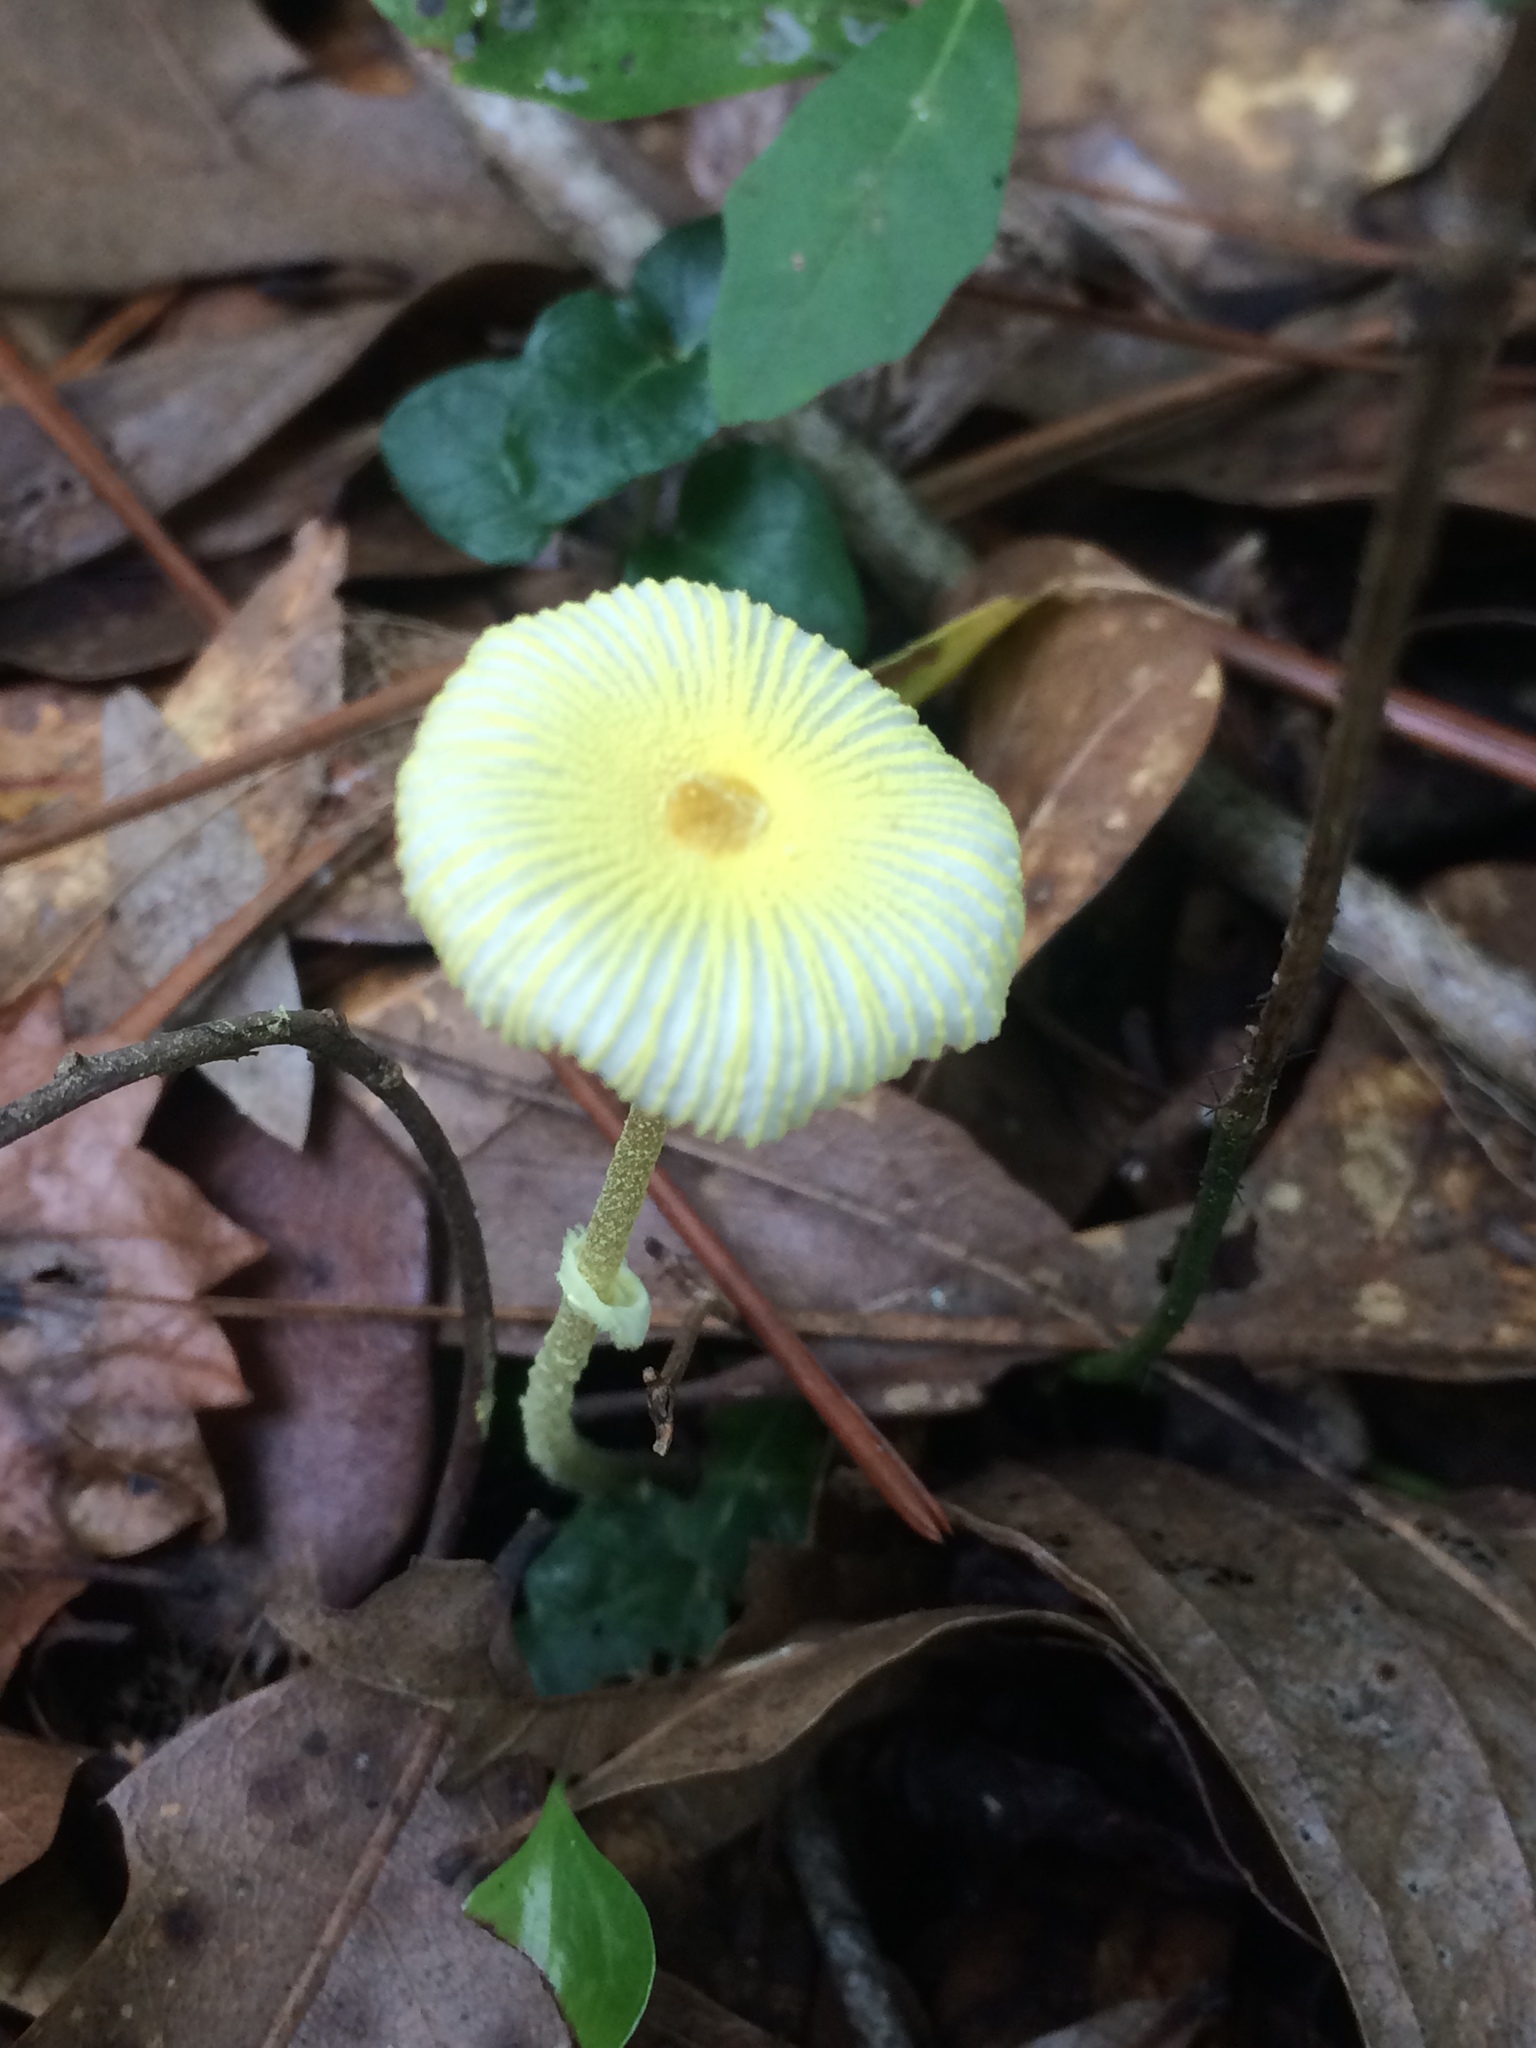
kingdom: Fungi
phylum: Basidiomycota
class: Agaricomycetes
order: Agaricales
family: Agaricaceae
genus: Leucocoprinus
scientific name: Leucocoprinus fragilissimus
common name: Fragile dapperling
